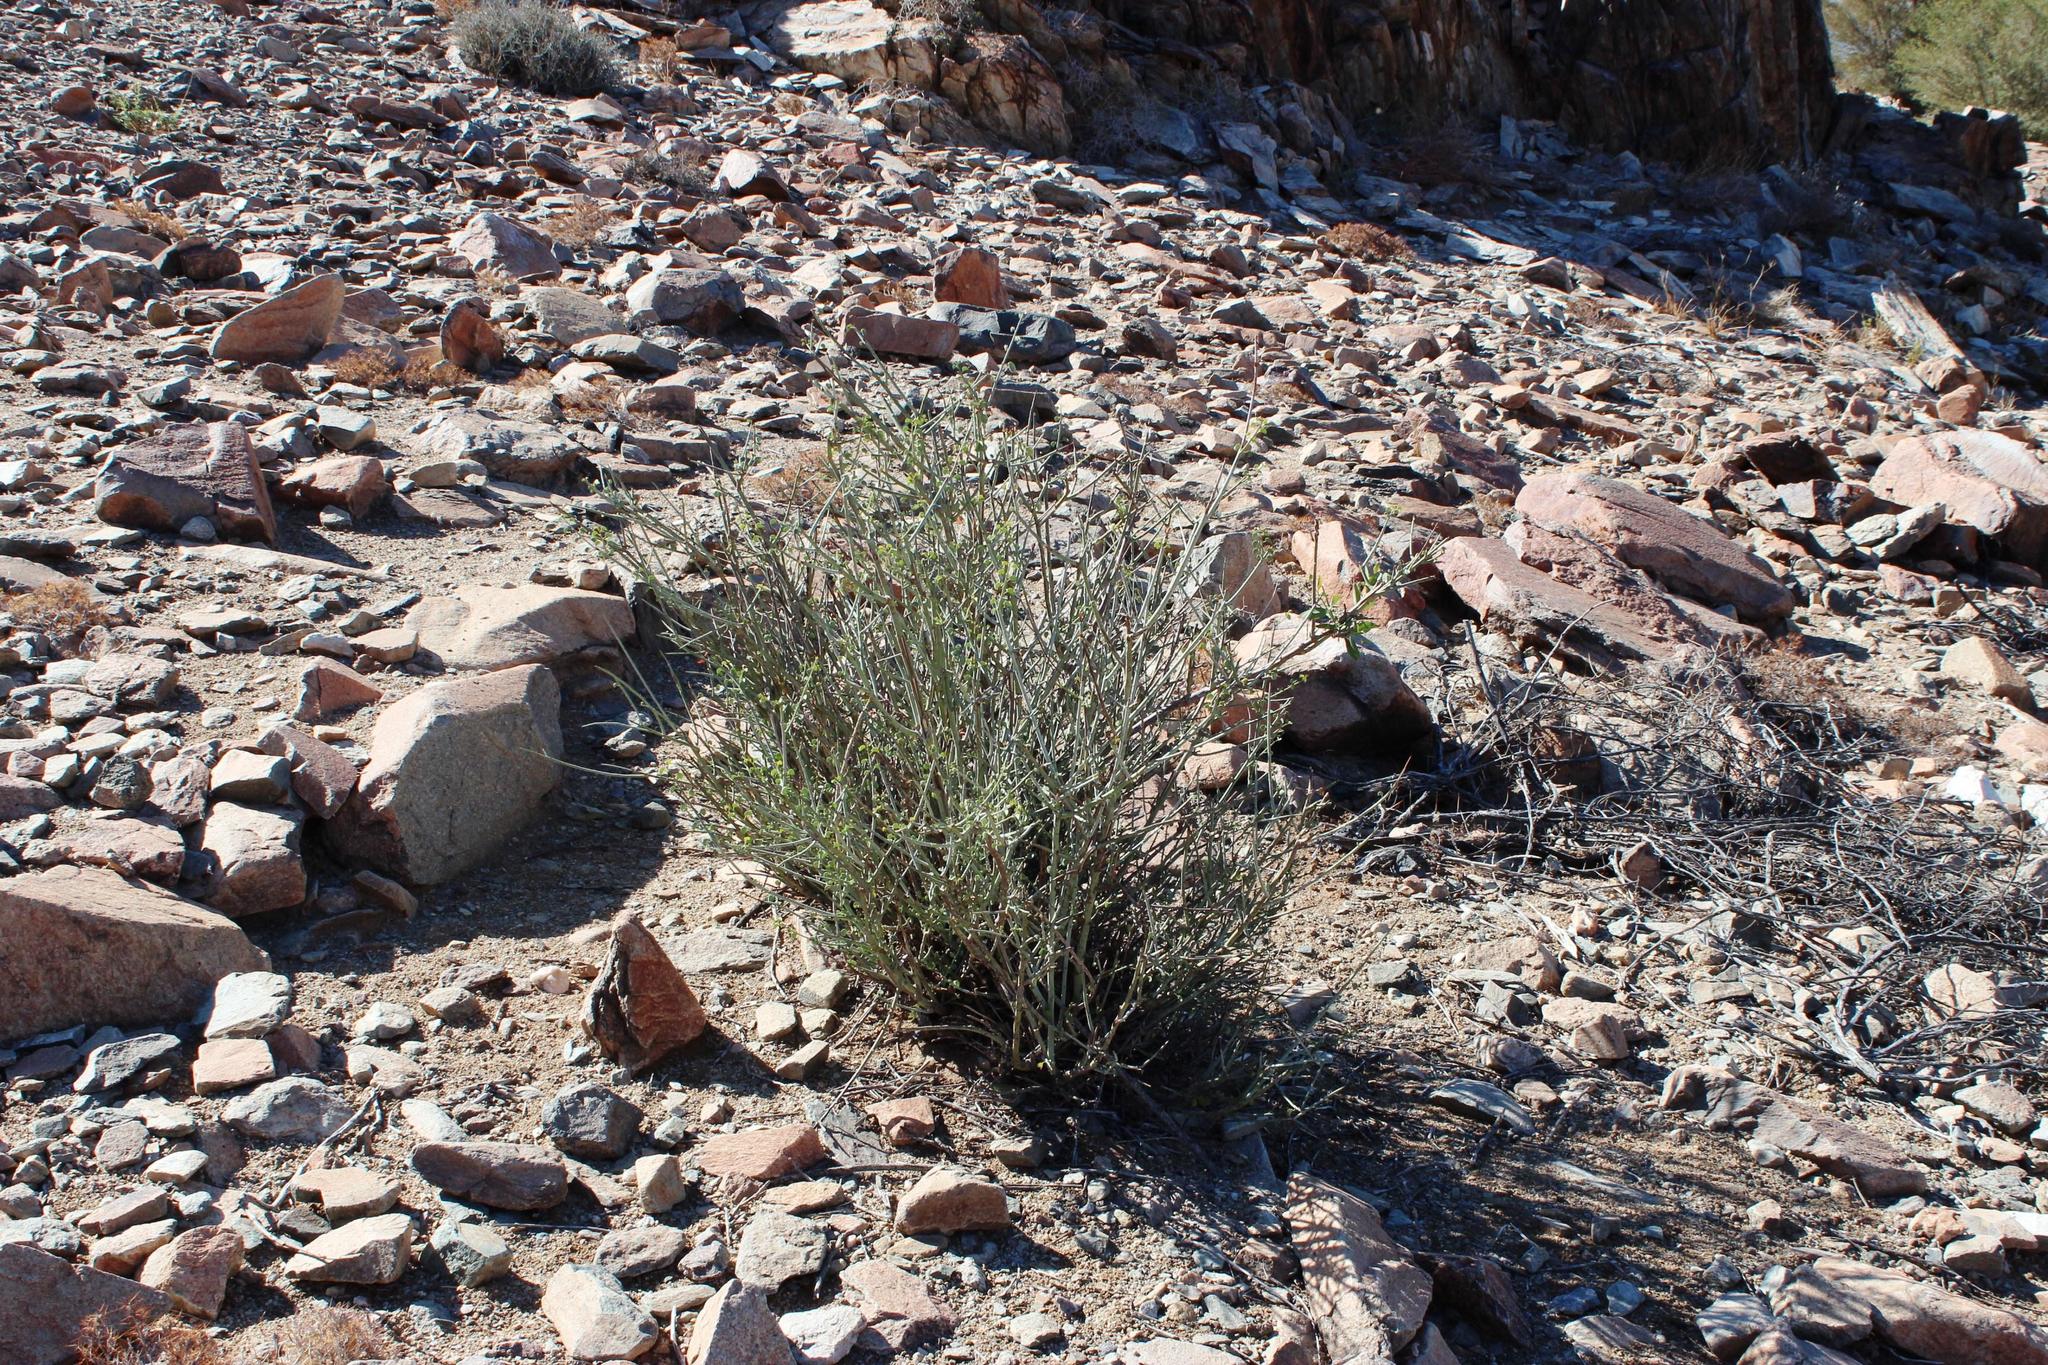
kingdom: Plantae
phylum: Tracheophyta
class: Magnoliopsida
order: Fabales
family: Fabaceae
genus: Adenolobus
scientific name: Adenolobus garipensis
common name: Butterfly-leaf
